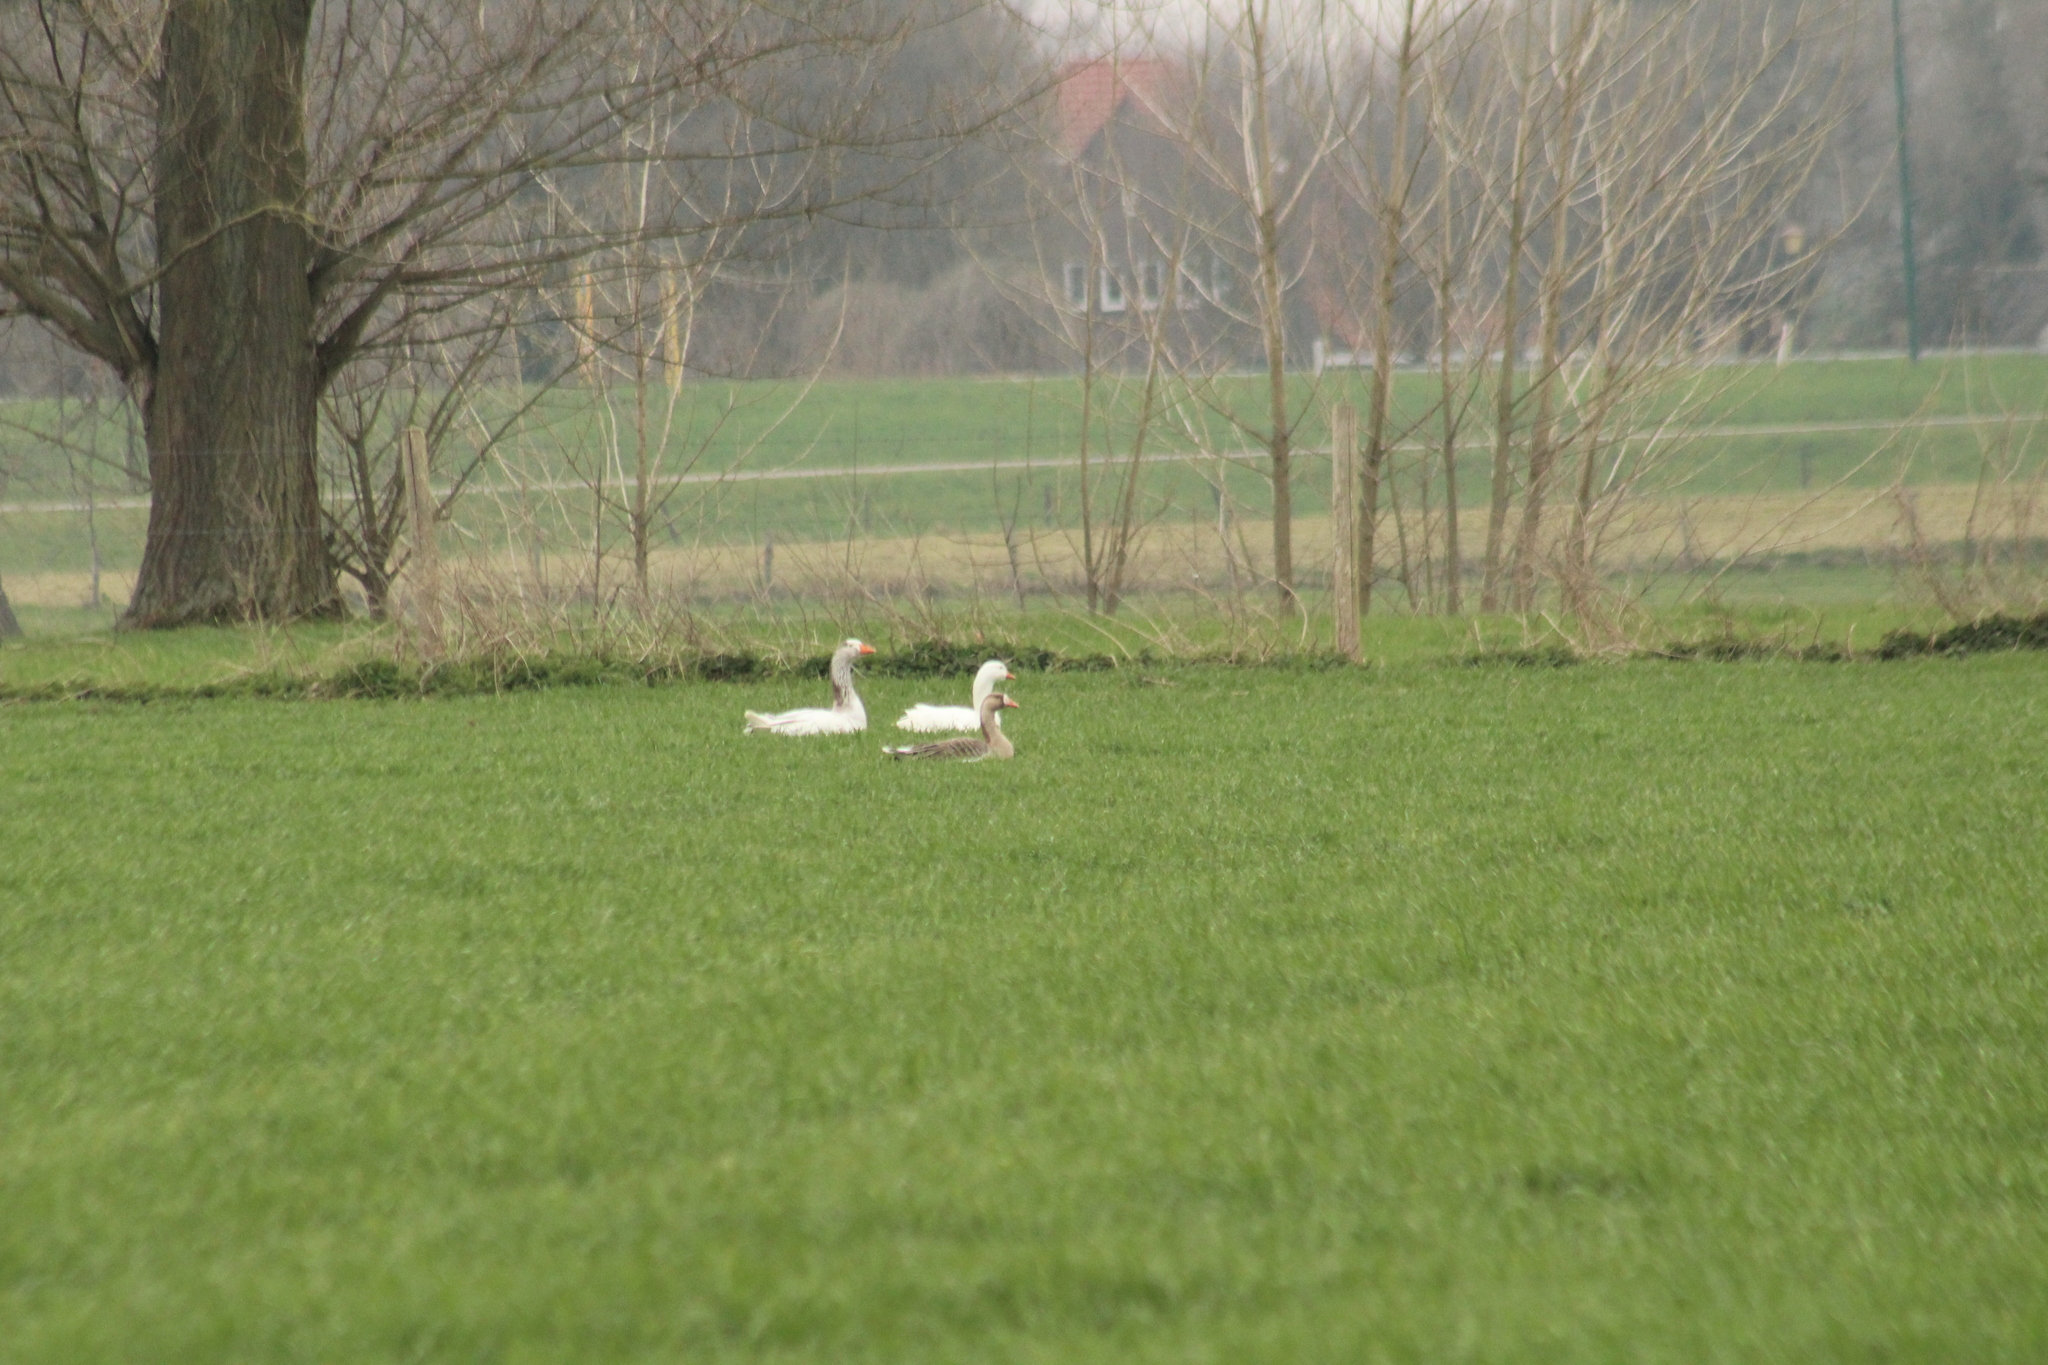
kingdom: Animalia
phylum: Chordata
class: Aves
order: Anseriformes
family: Anatidae
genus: Anser
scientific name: Anser anser
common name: Greylag goose
